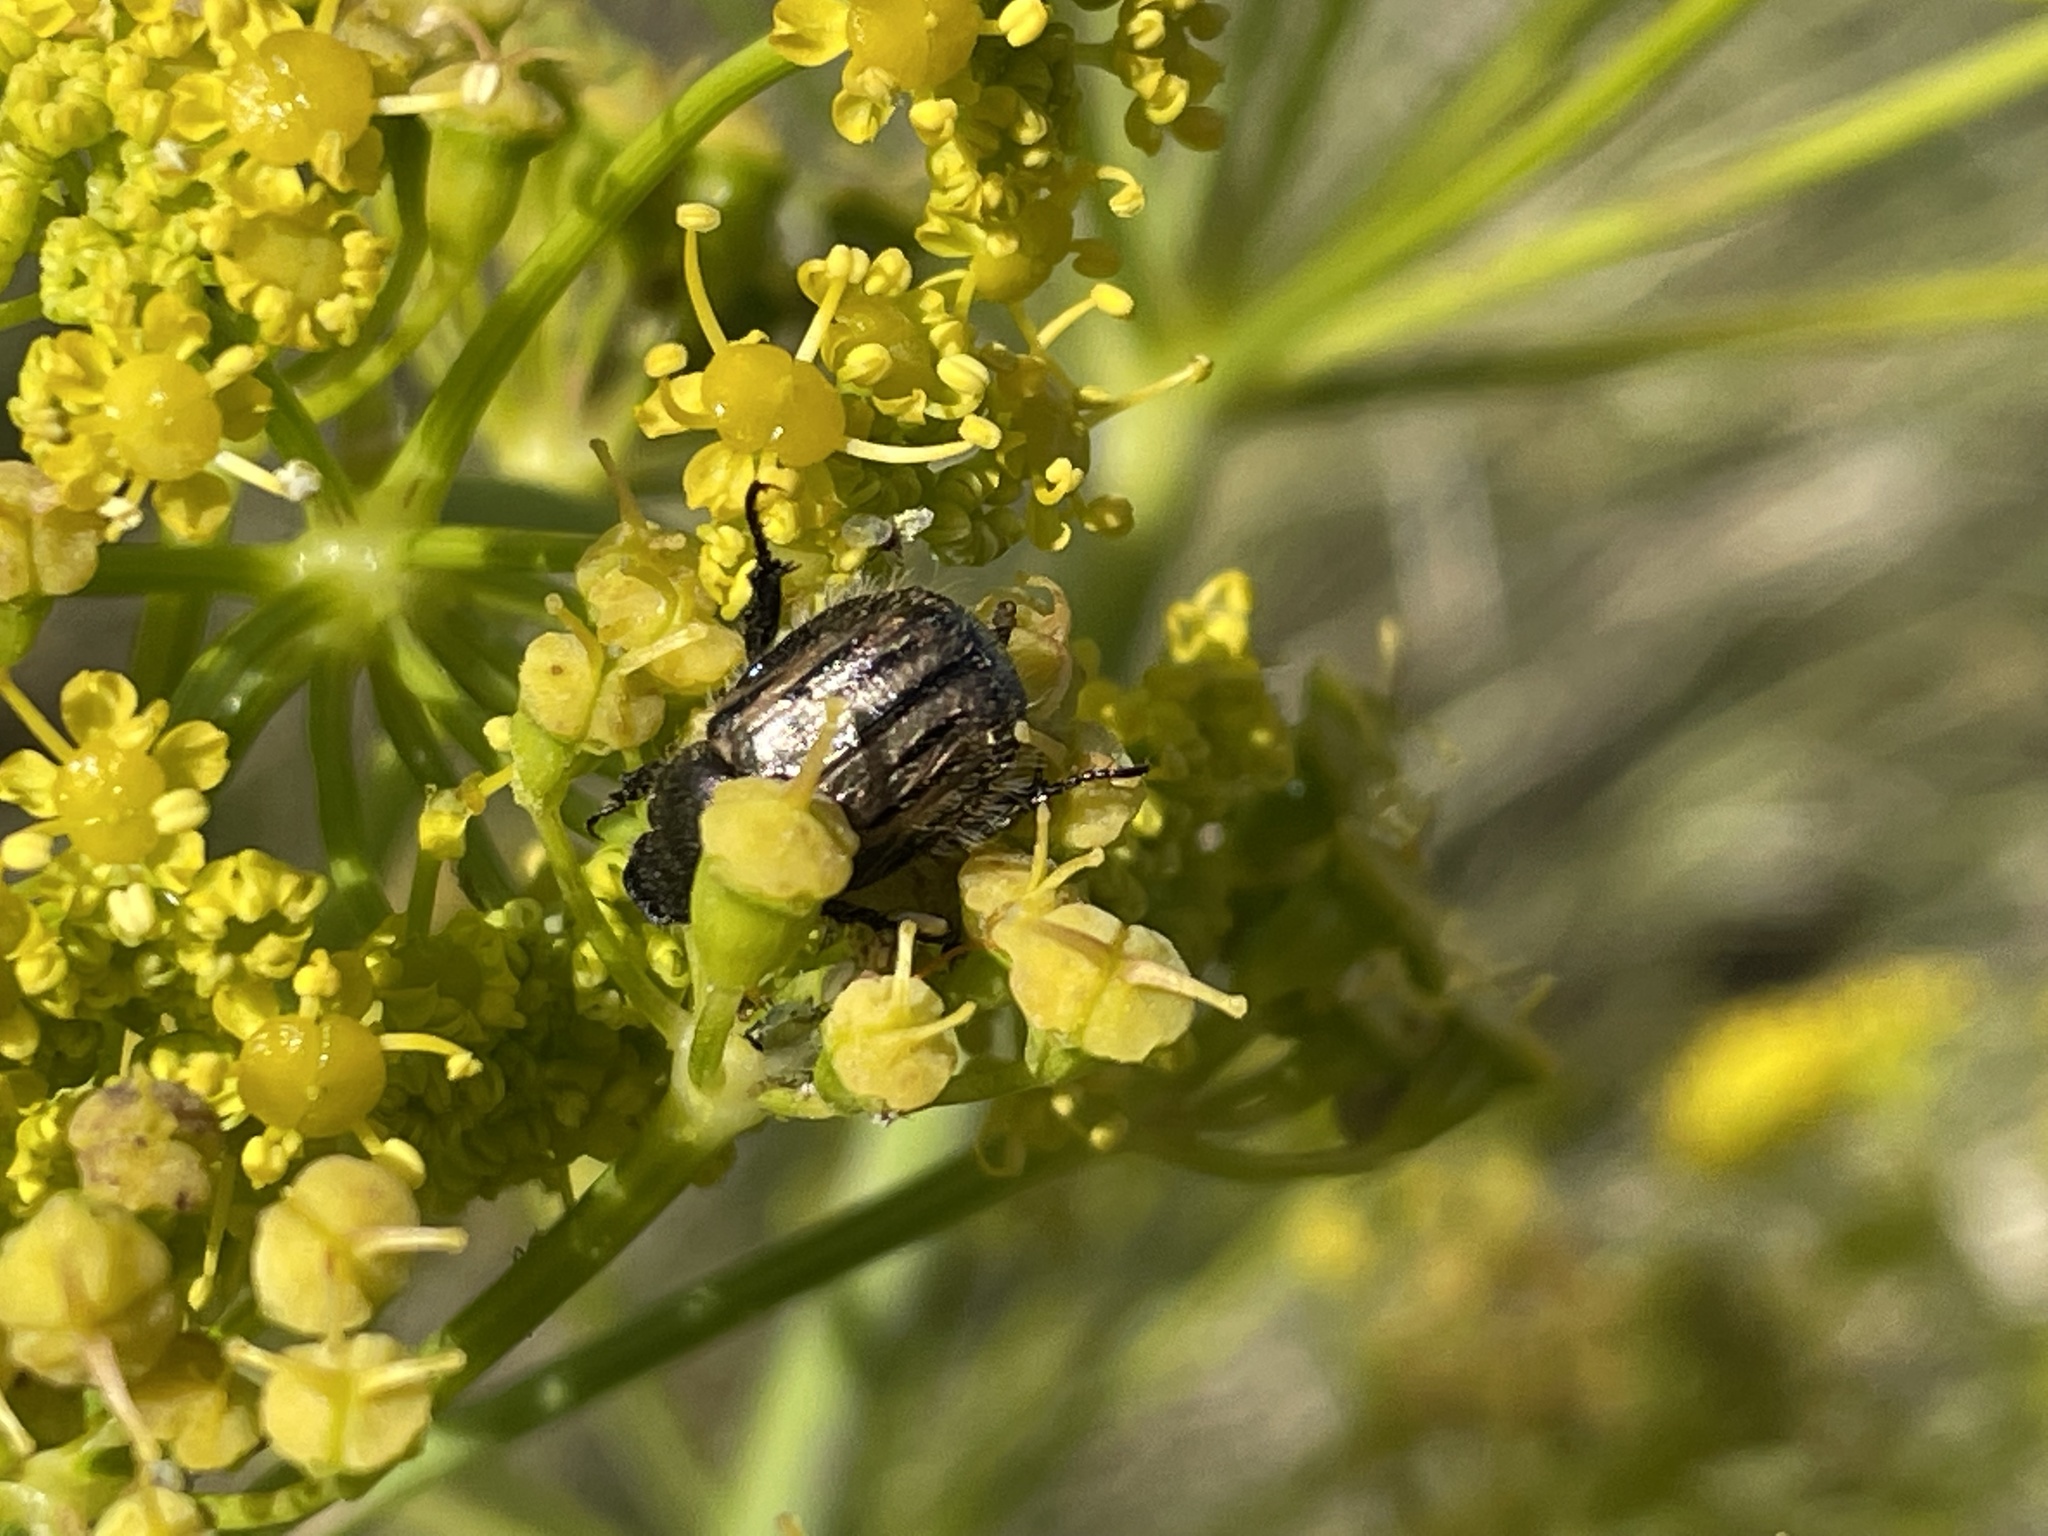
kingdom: Animalia
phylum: Arthropoda
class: Insecta
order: Coleoptera
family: Scarabaeidae
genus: Blitopertha
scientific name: Blitopertha nigripennis
